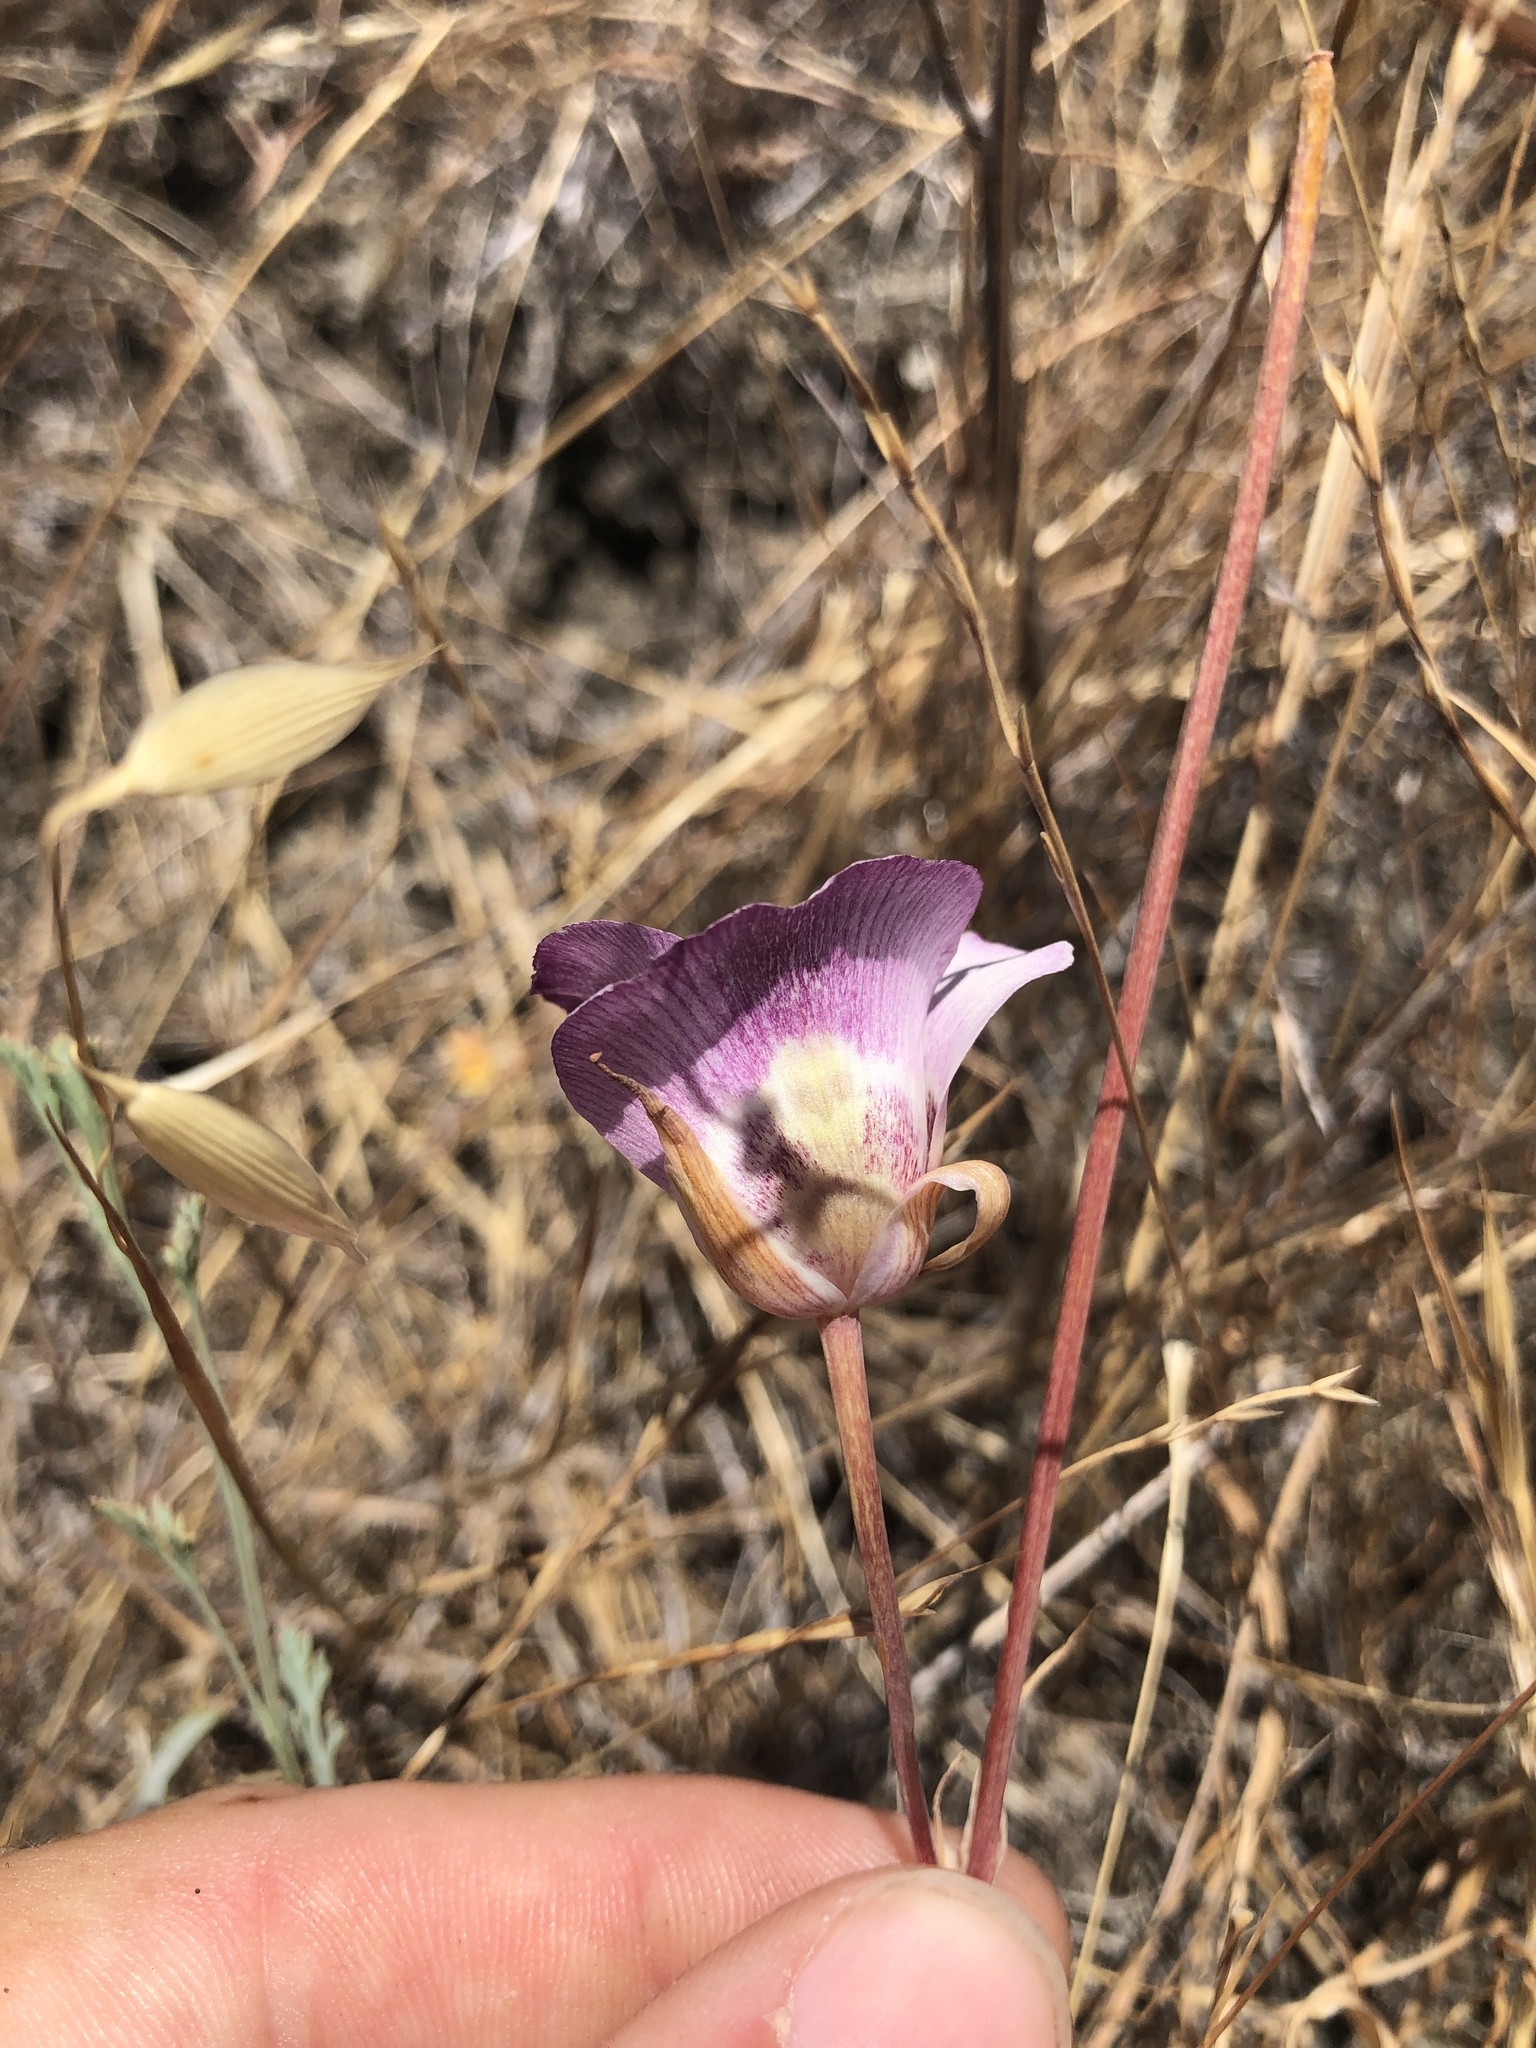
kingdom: Plantae
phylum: Tracheophyta
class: Liliopsida
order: Liliales
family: Liliaceae
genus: Calochortus
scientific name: Calochortus argillosus
